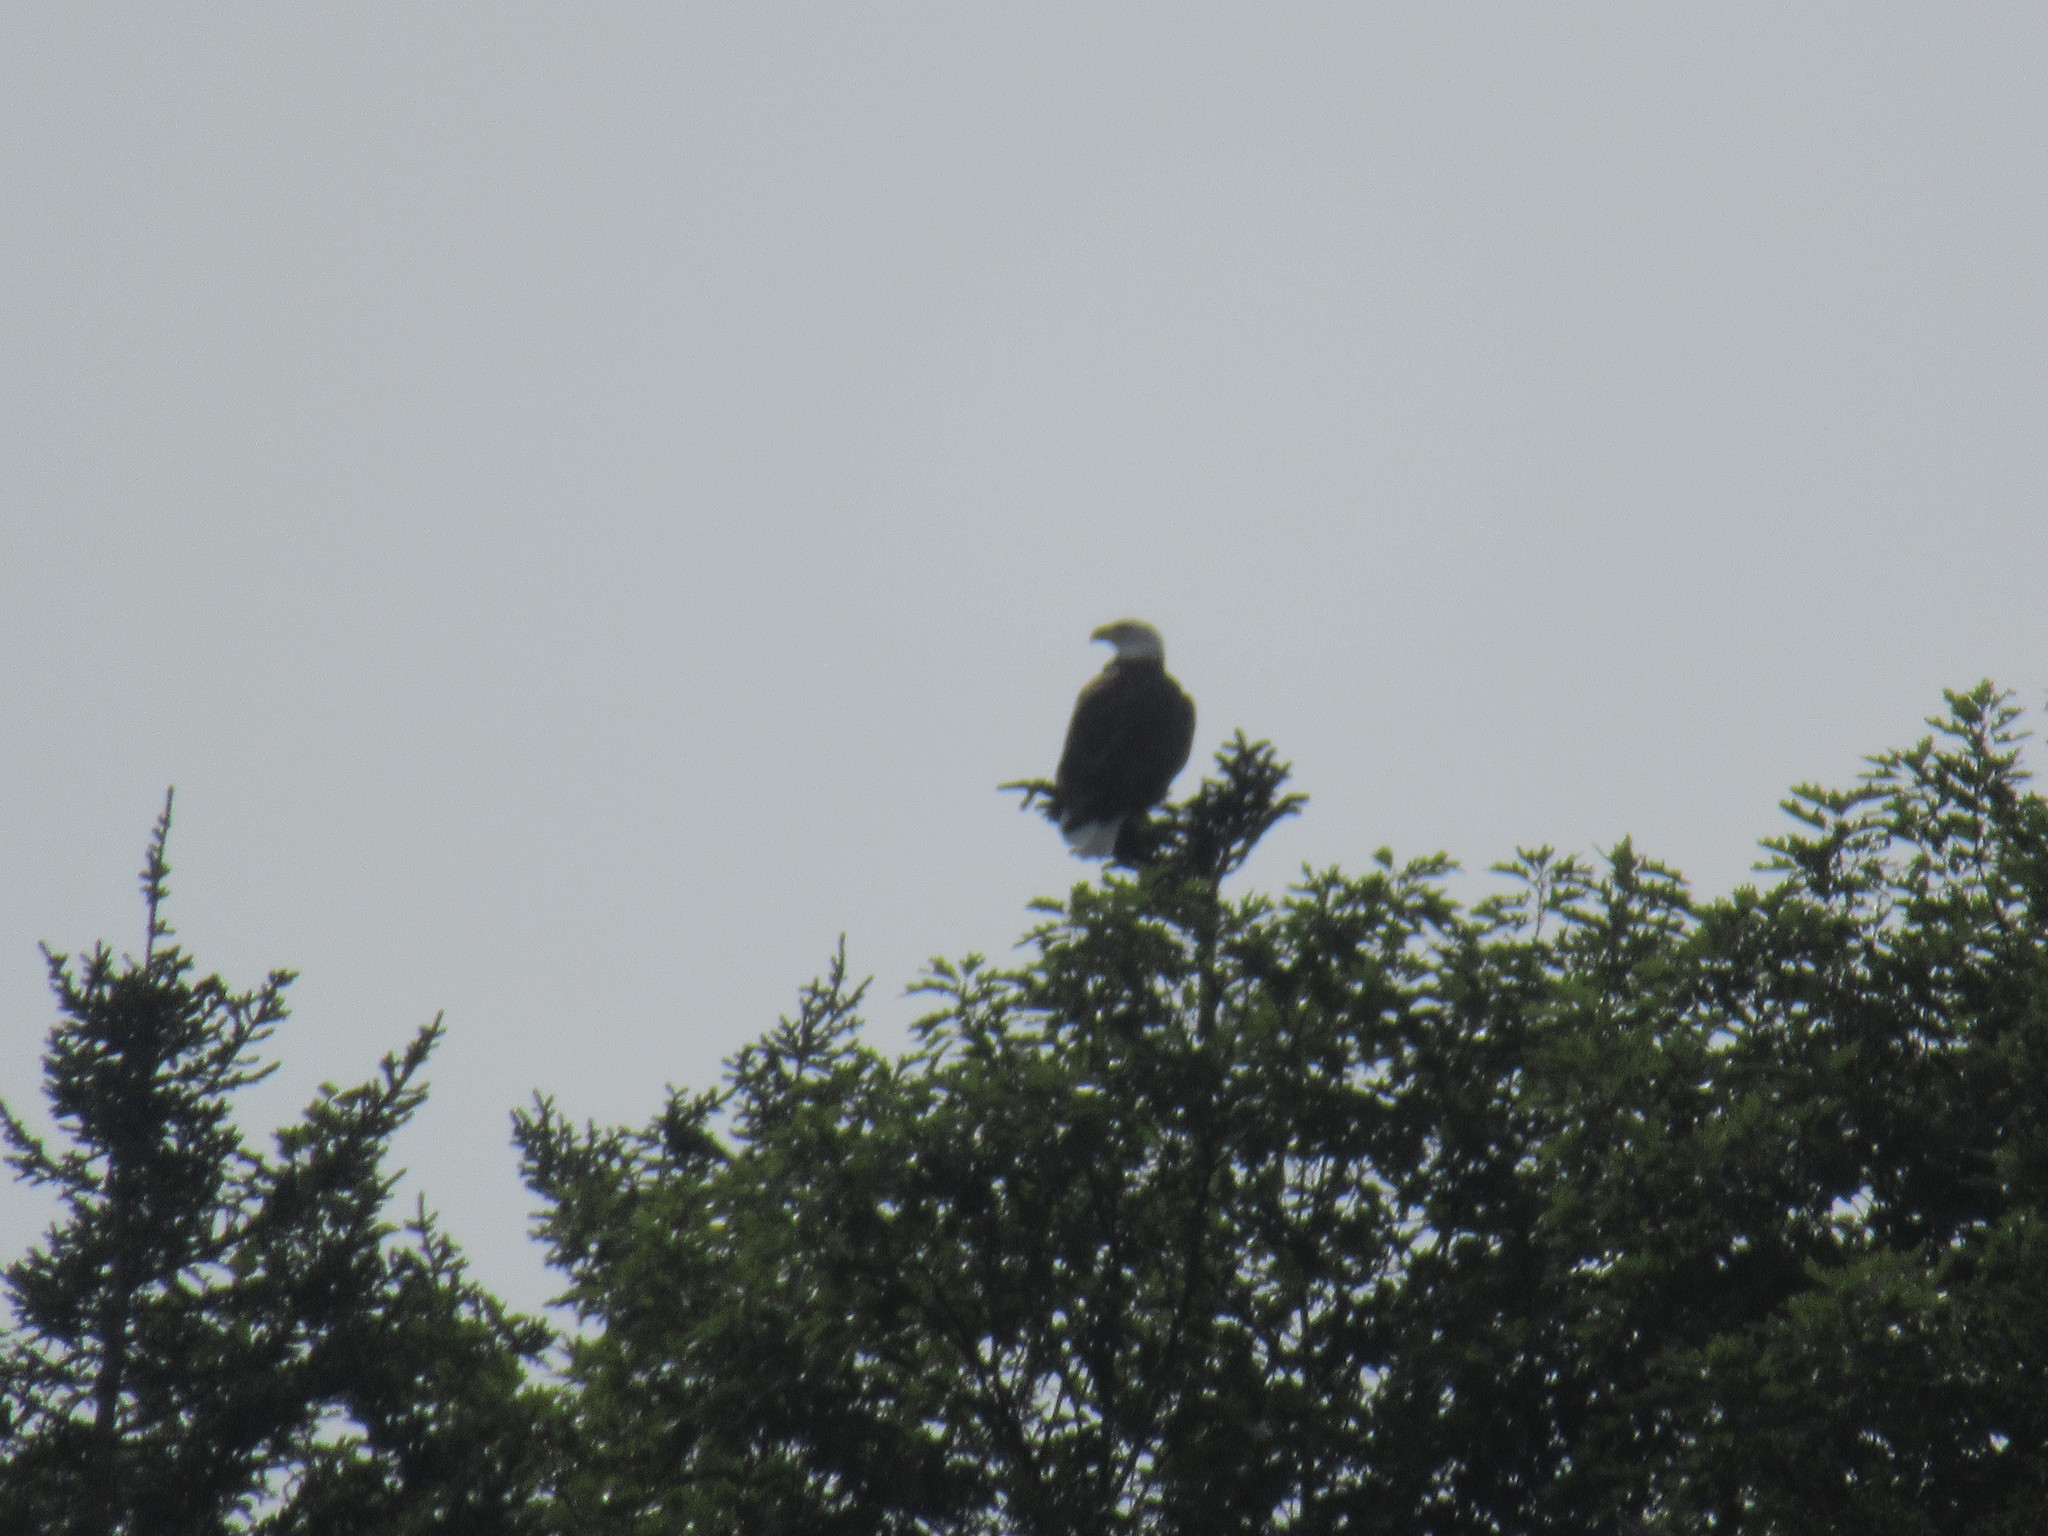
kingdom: Animalia
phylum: Chordata
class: Aves
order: Accipitriformes
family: Accipitridae
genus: Haliaeetus
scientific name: Haliaeetus leucocephalus
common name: Bald eagle
